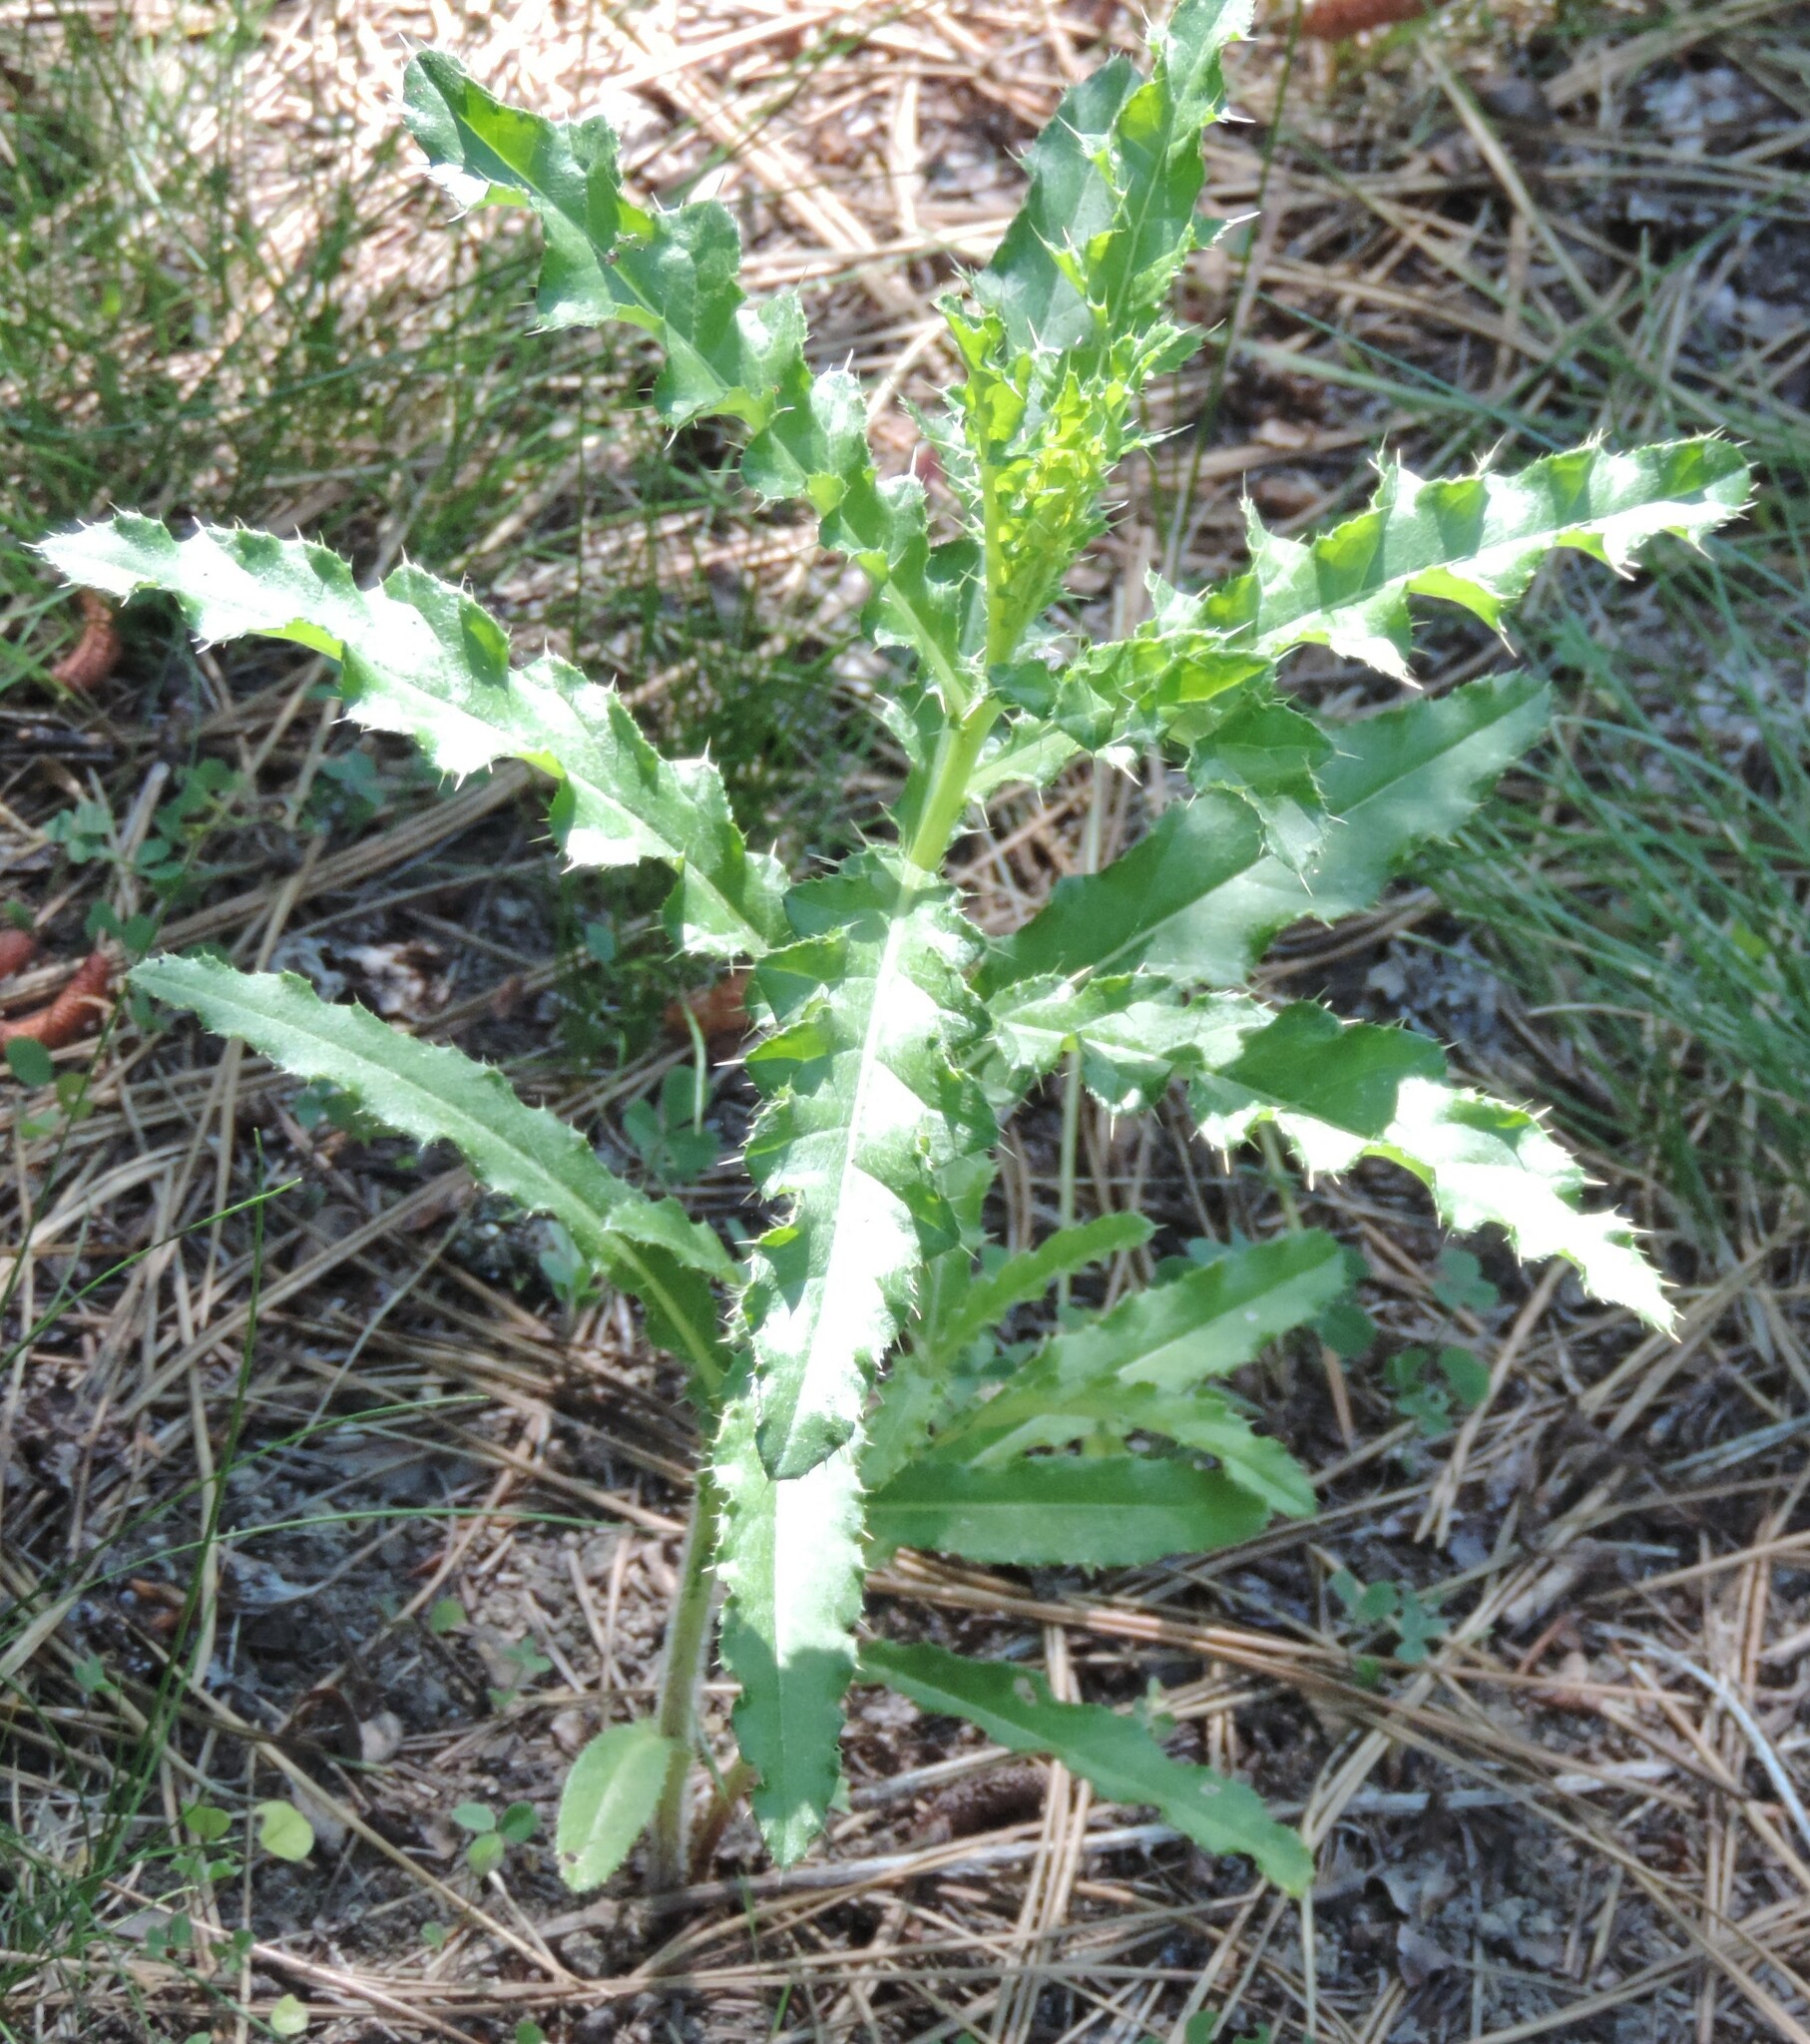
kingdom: Plantae
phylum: Tracheophyta
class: Magnoliopsida
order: Asterales
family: Asteraceae
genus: Cirsium
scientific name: Cirsium arvense
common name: Creeping thistle
